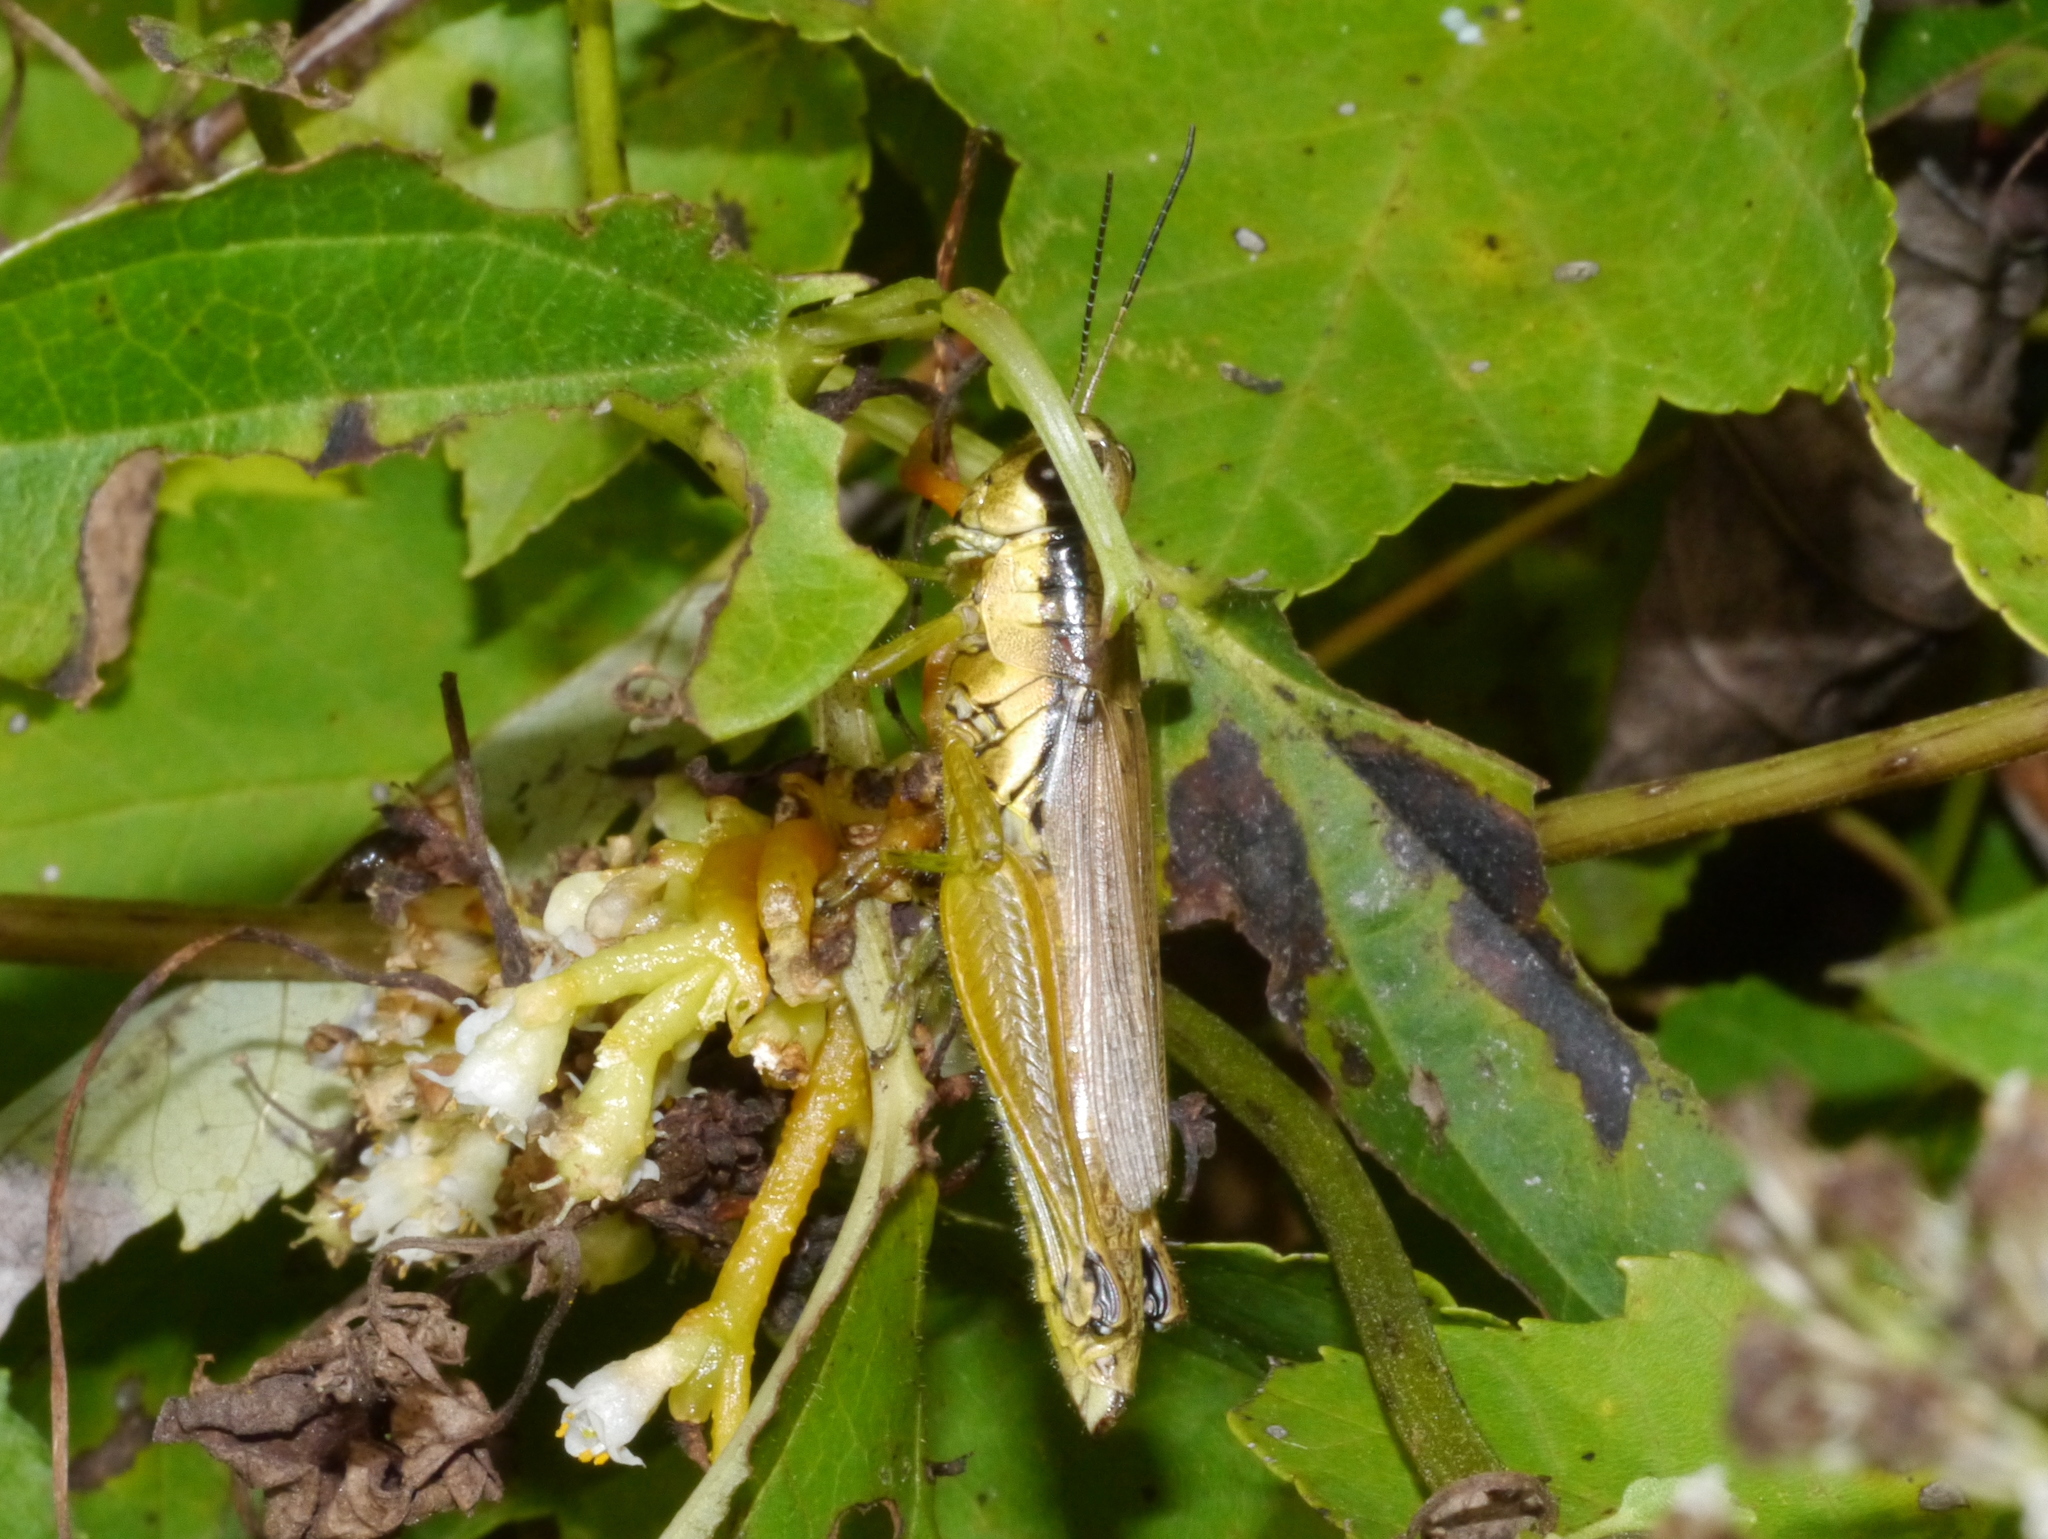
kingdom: Animalia
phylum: Arthropoda
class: Insecta
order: Orthoptera
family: Acrididae
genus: Paroxya
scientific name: Paroxya clavuligera
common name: Olive-green swamp grasshopper
